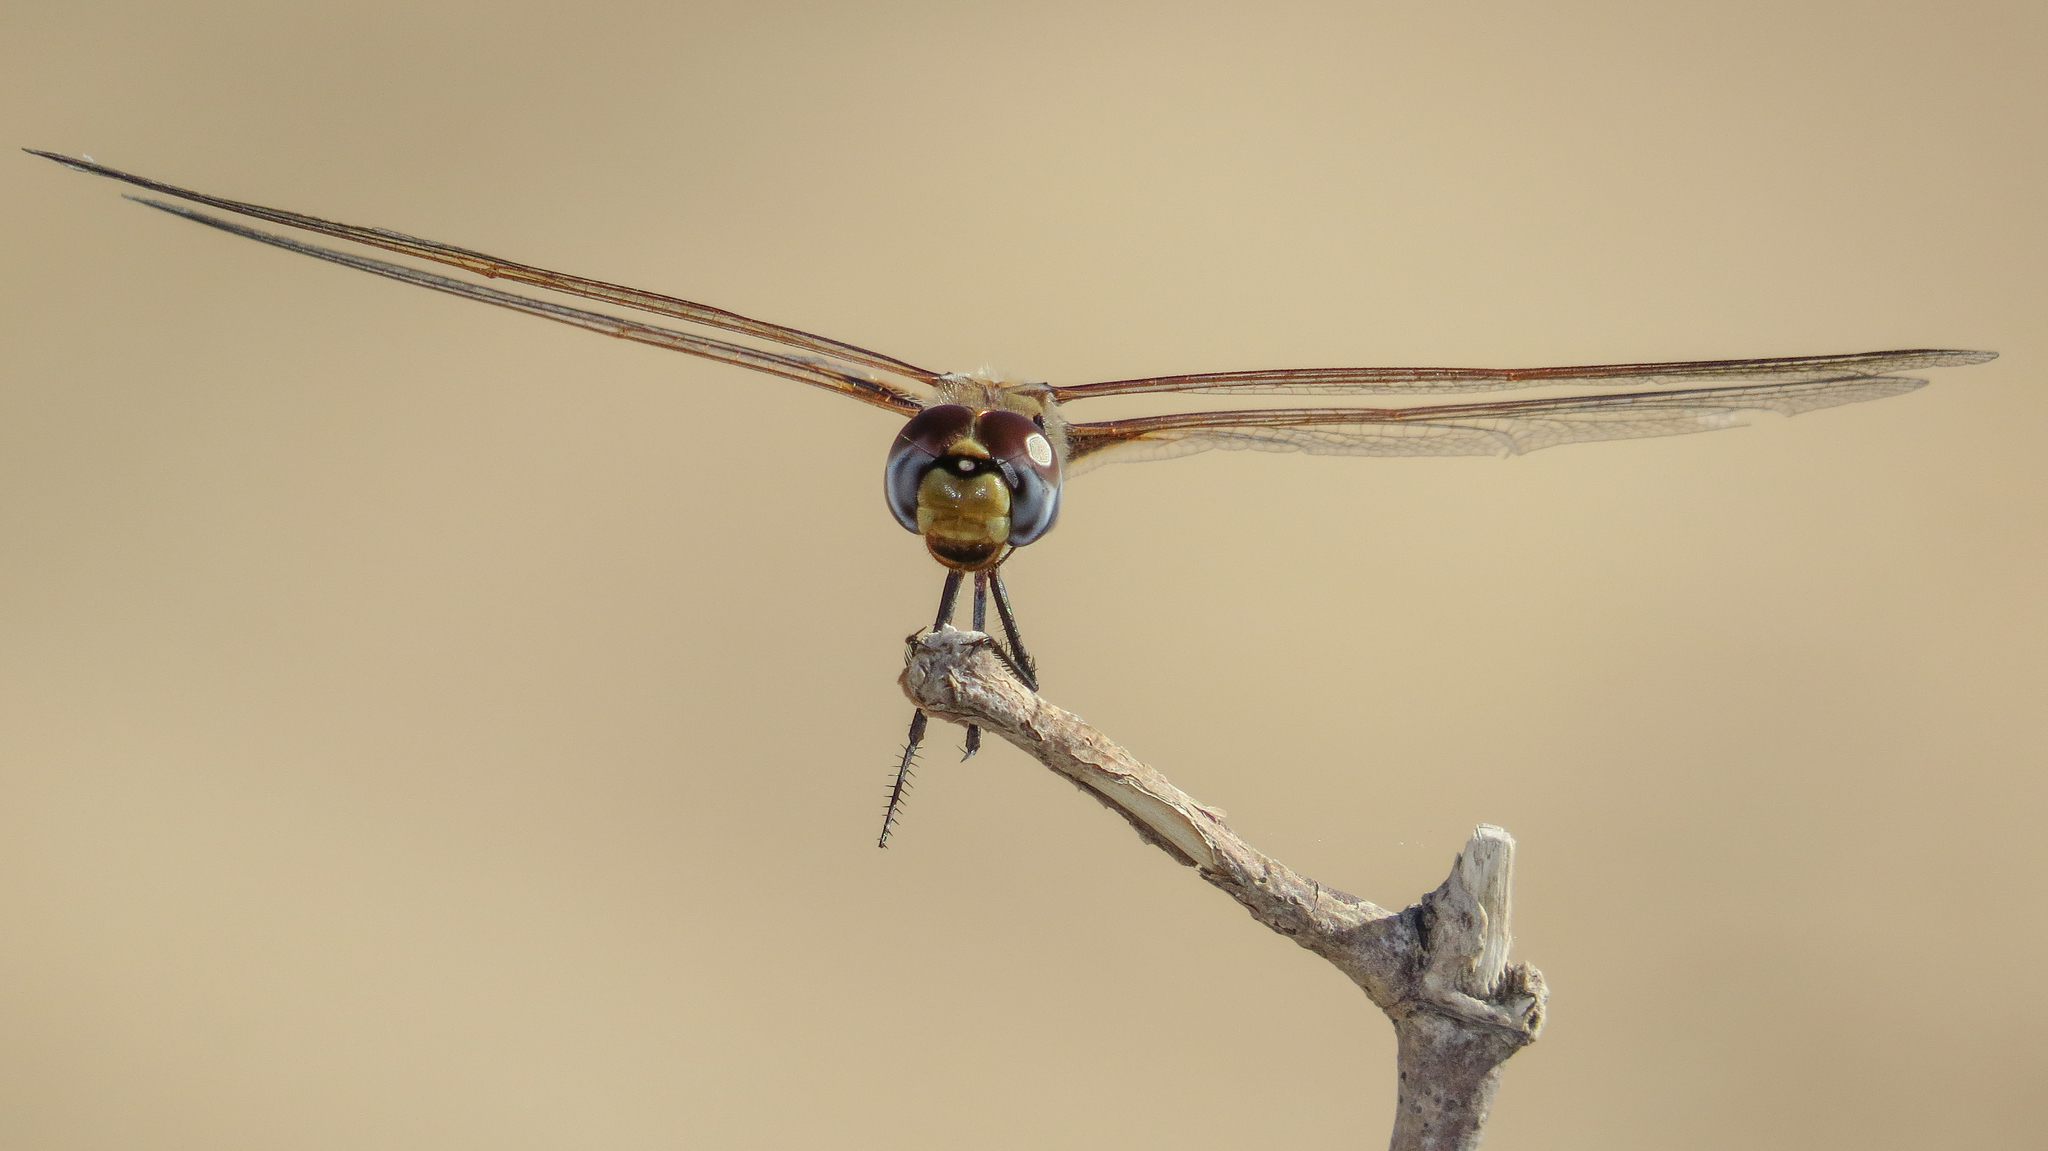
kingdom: Animalia
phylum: Arthropoda
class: Insecta
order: Odonata
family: Libellulidae
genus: Tramea
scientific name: Tramea loewii
